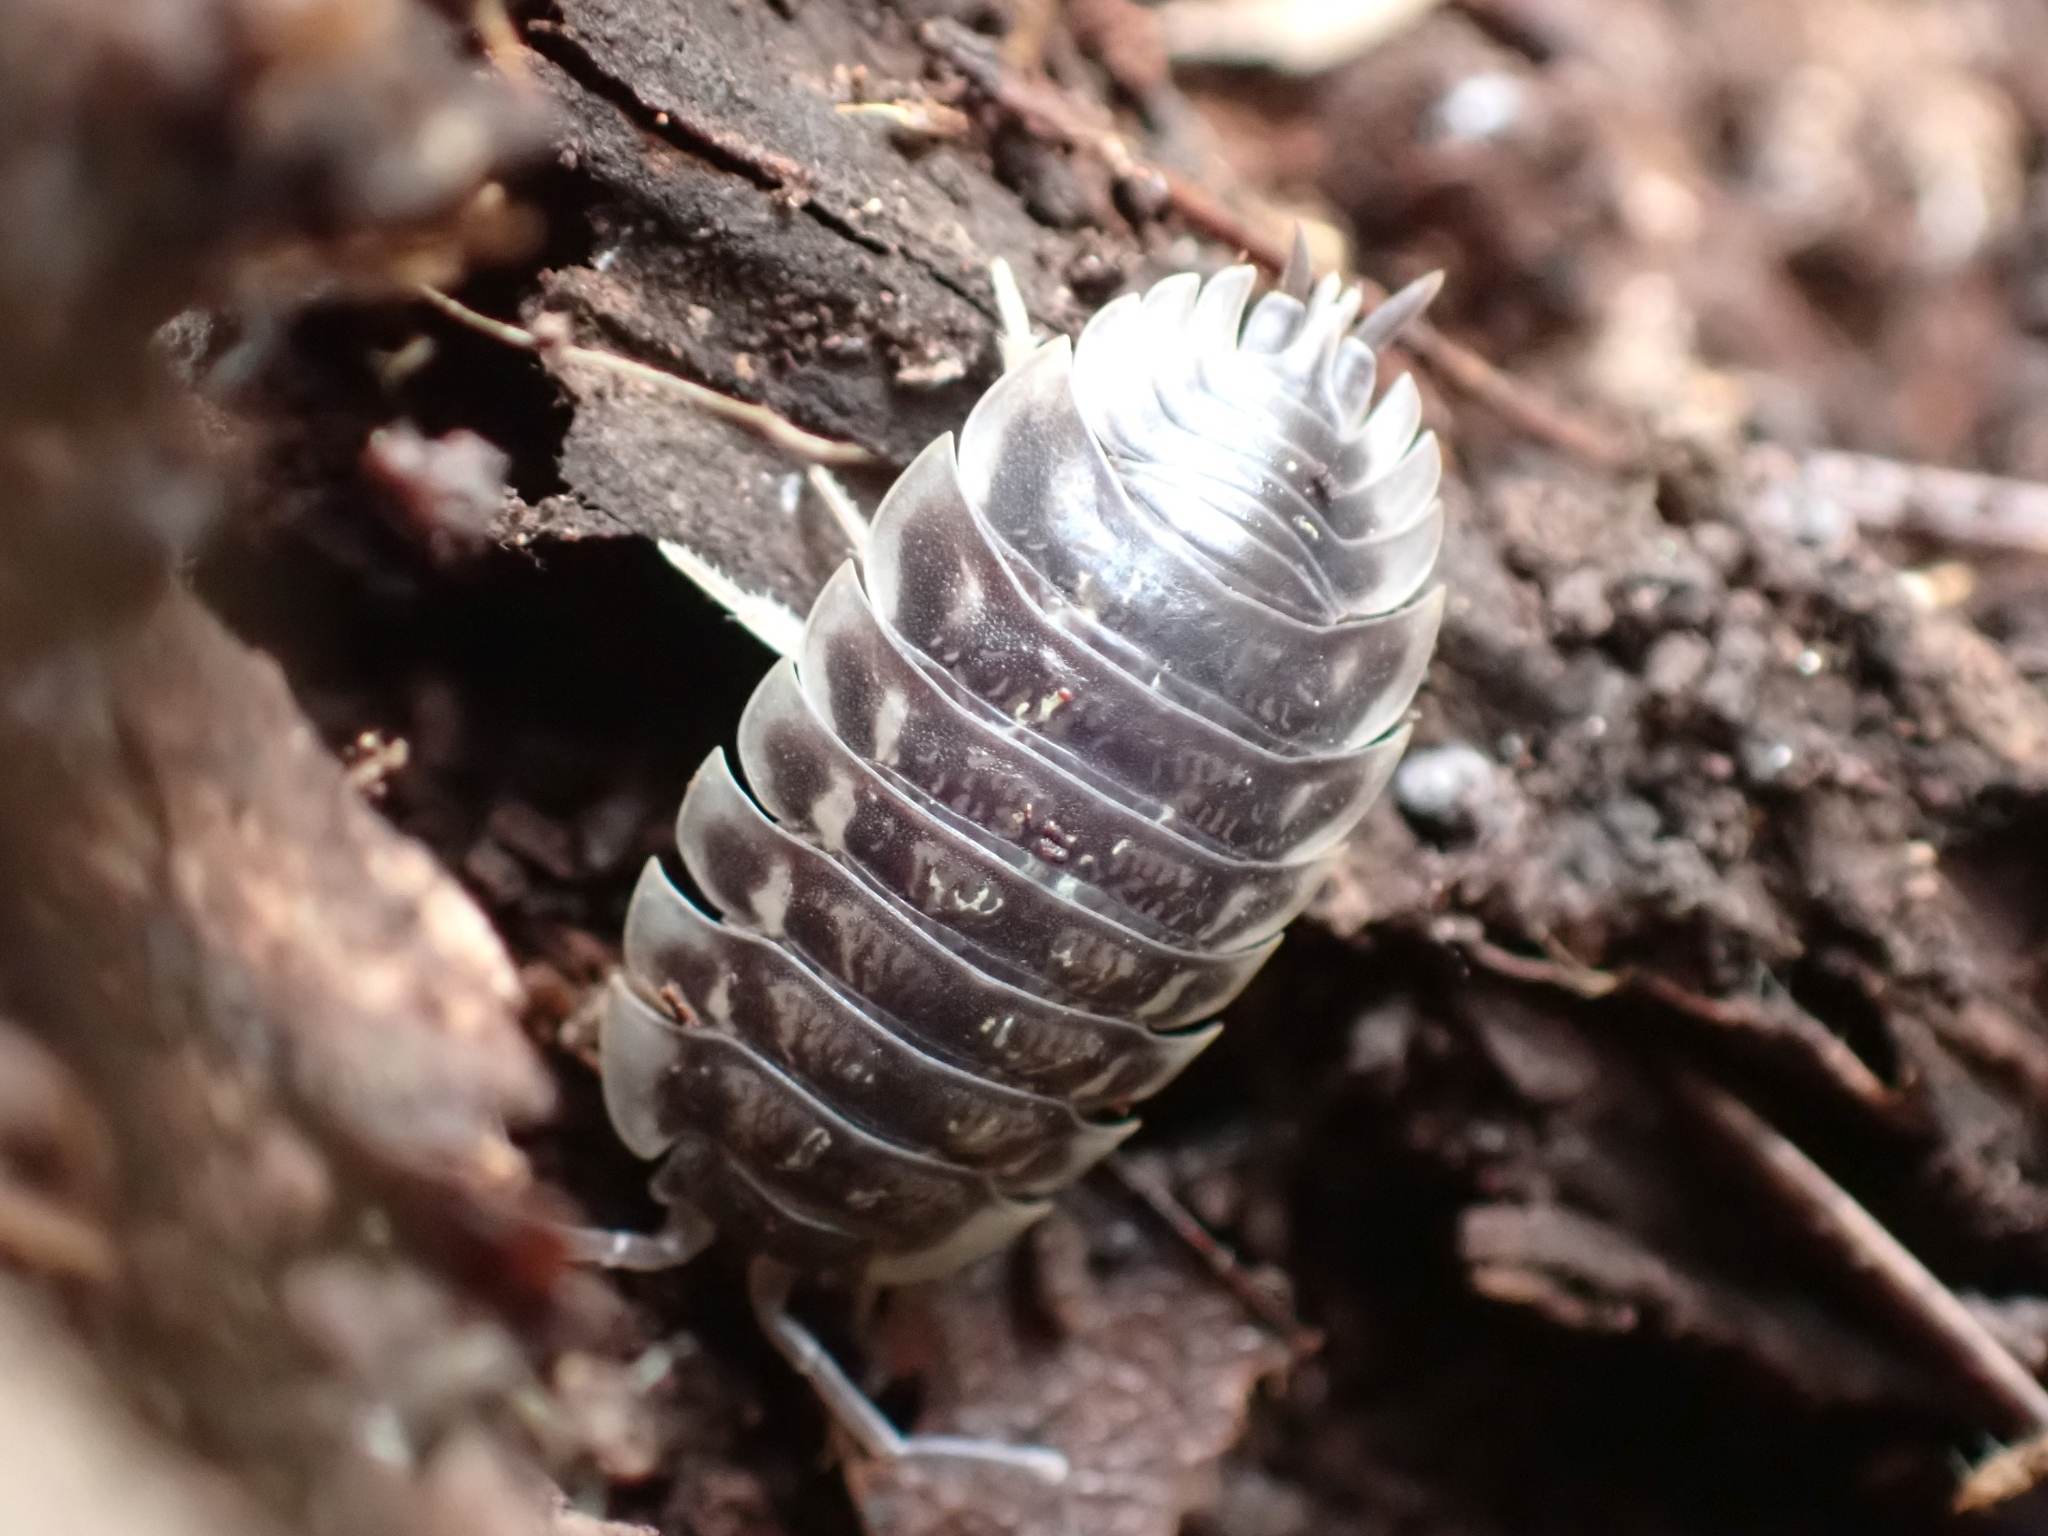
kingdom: Animalia
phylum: Arthropoda
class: Malacostraca
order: Isopoda
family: Oniscidae
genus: Oniscus
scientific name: Oniscus asellus
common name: Common shiny woodlouse
